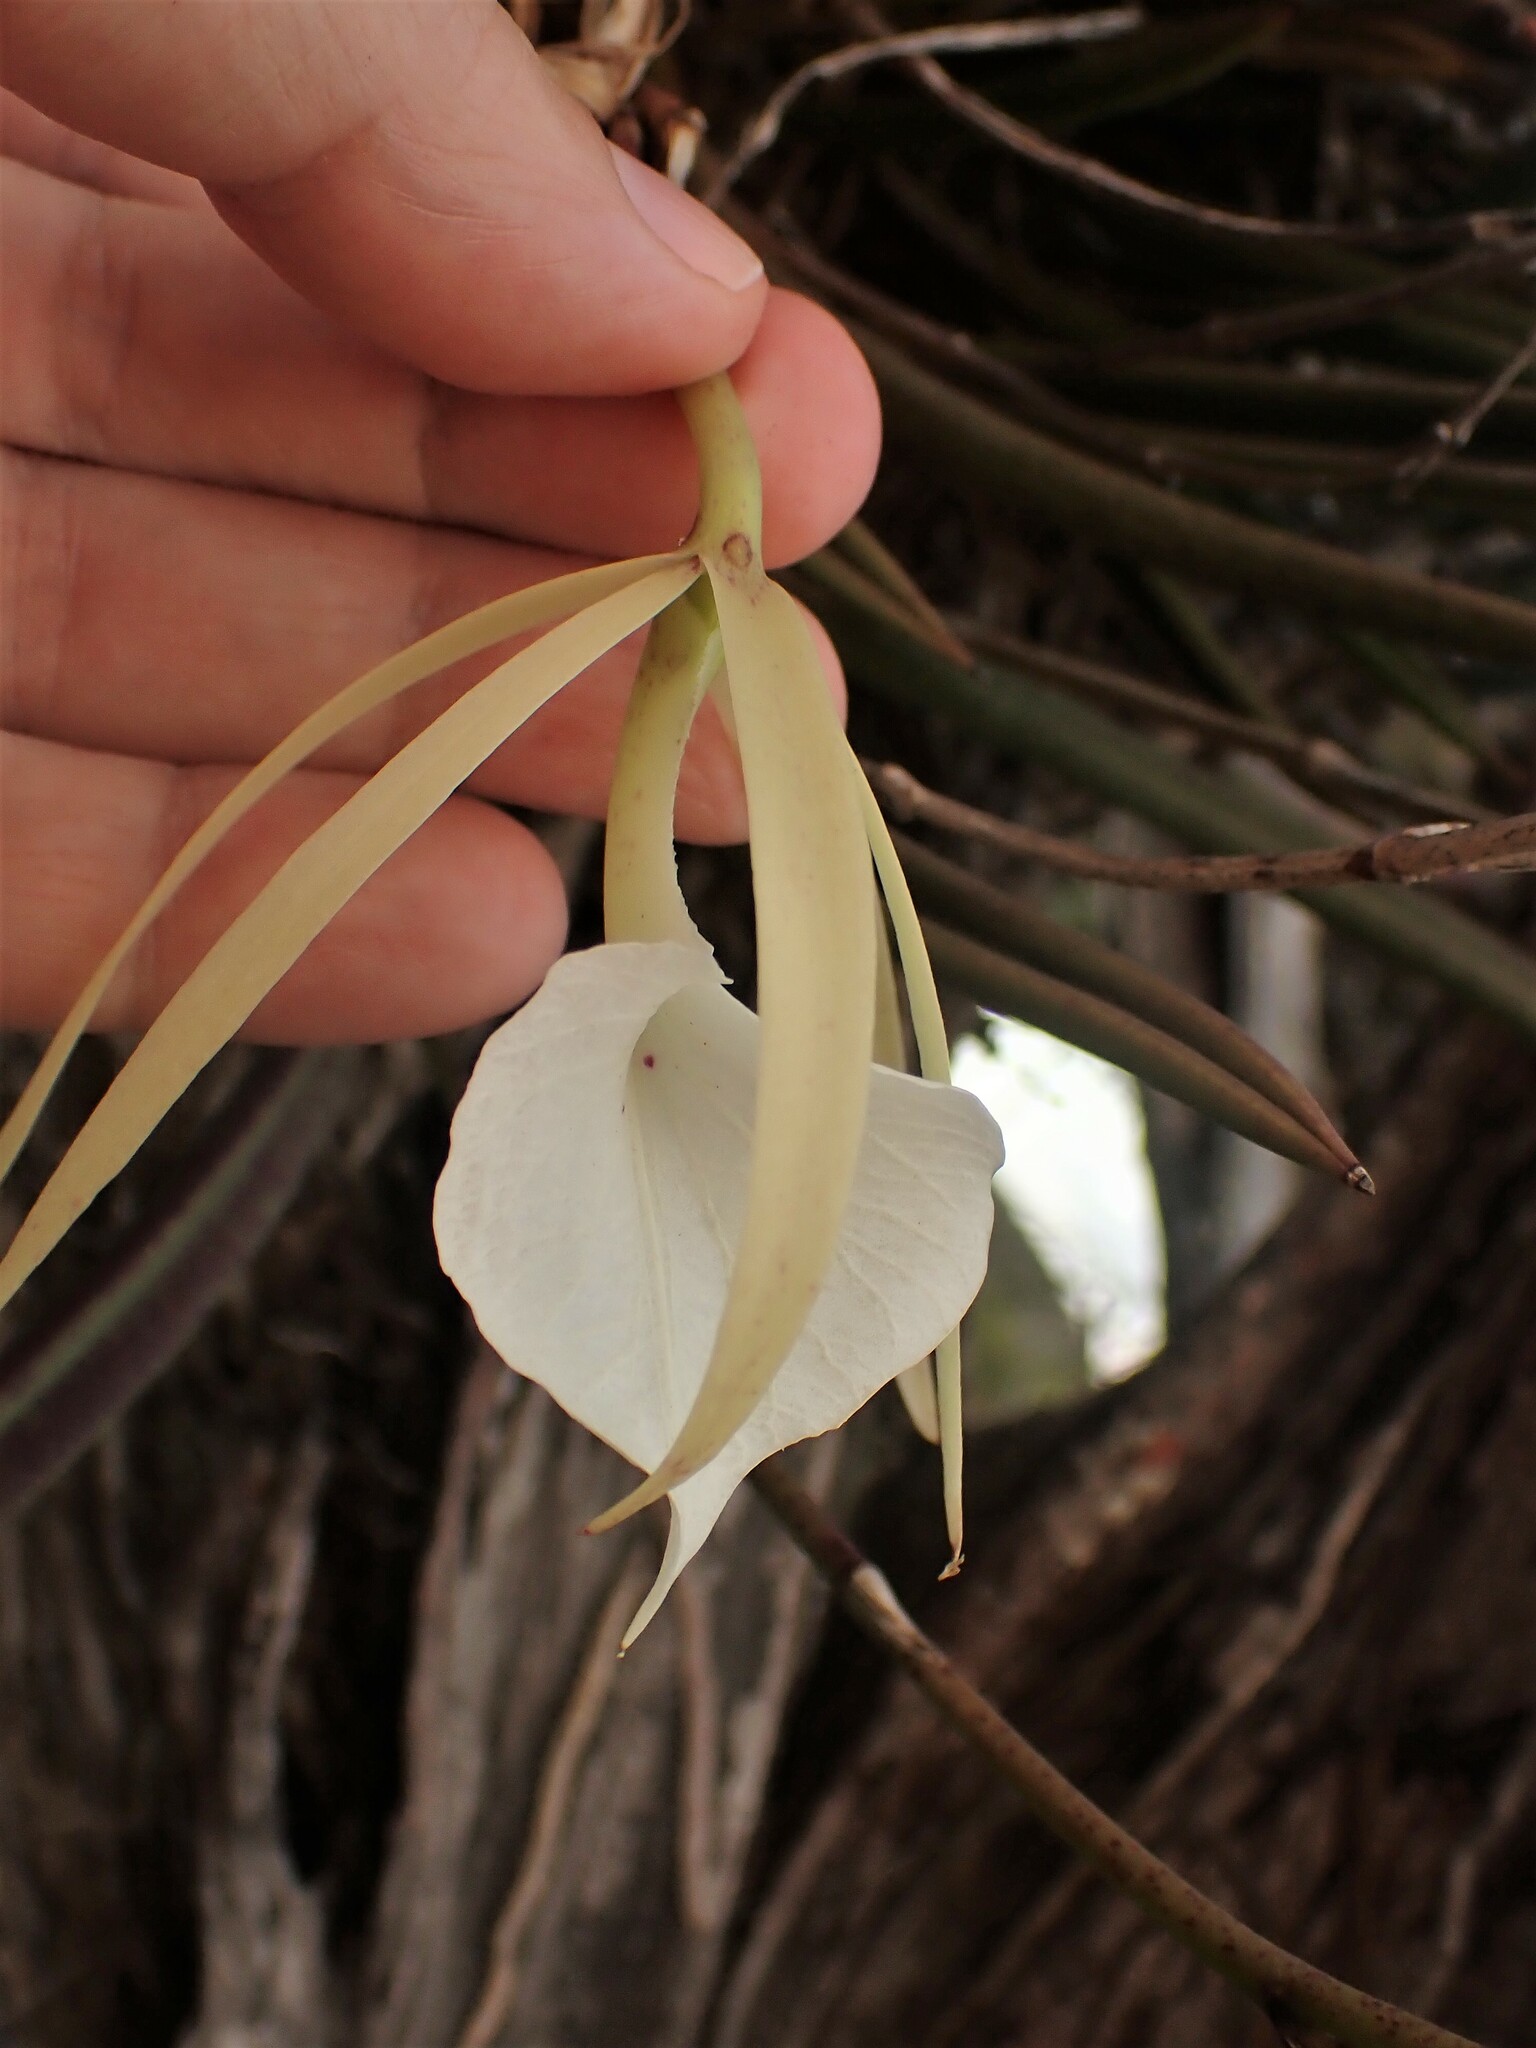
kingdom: Plantae
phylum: Tracheophyta
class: Liliopsida
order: Asparagales
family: Orchidaceae
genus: Brassavola
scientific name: Brassavola nodosa
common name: Lady of the night
